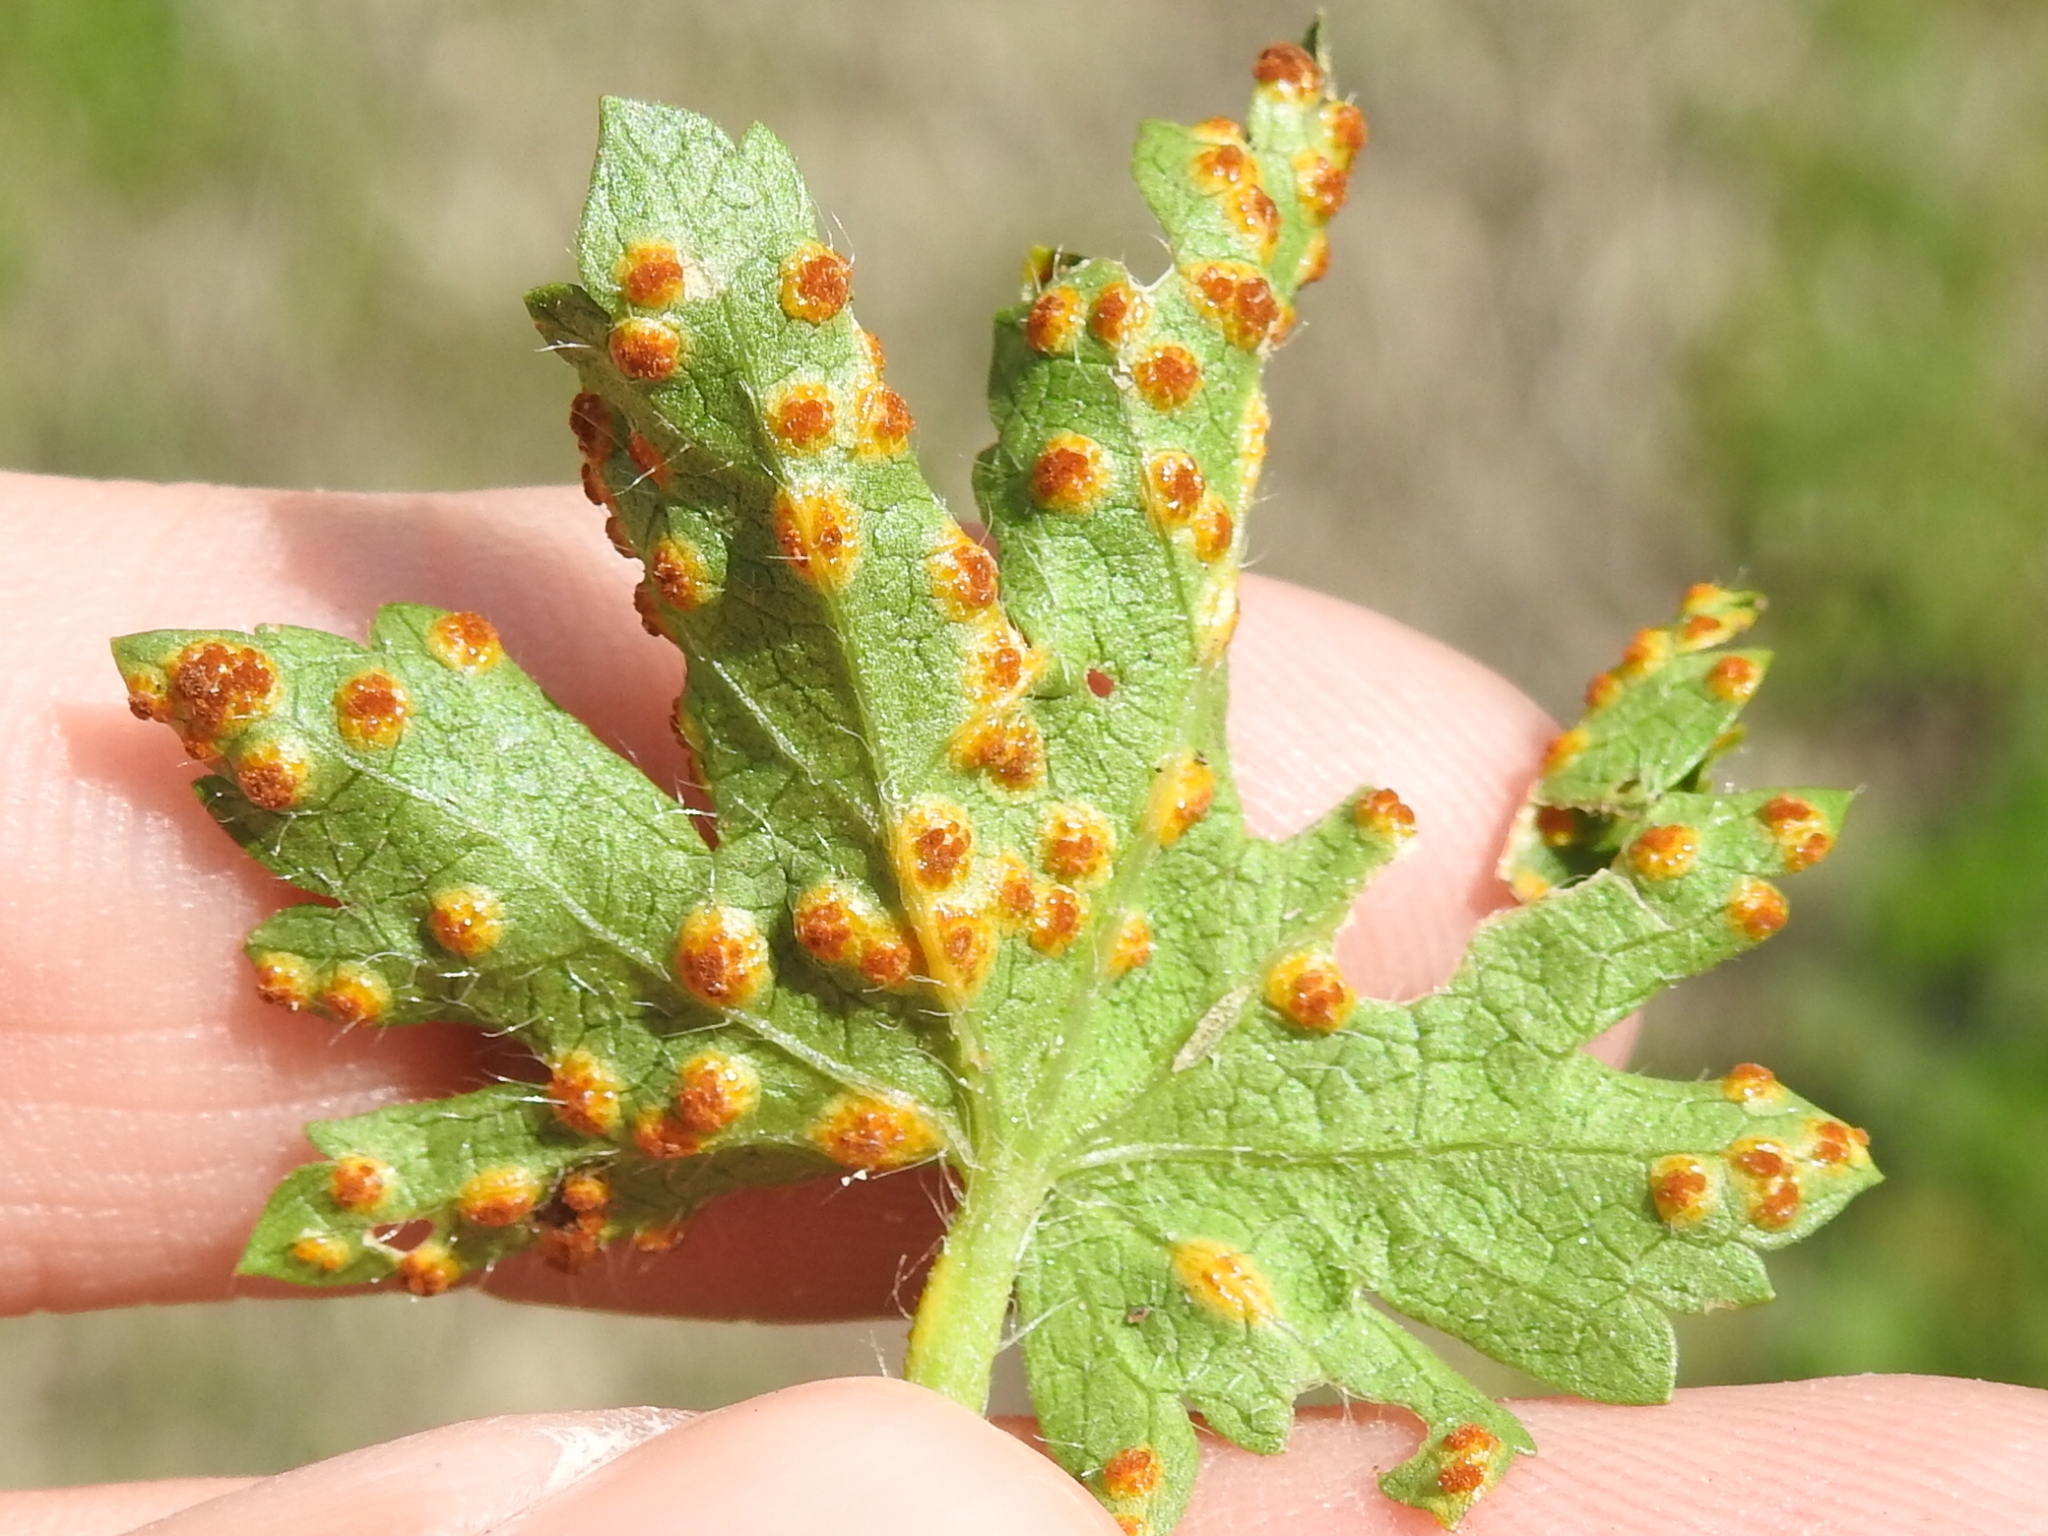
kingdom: Fungi
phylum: Basidiomycota
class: Pucciniomycetes
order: Pucciniales
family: Pucciniaceae
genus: Puccinia
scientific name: Puccinia modiolae
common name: Rust of bristlemallow
